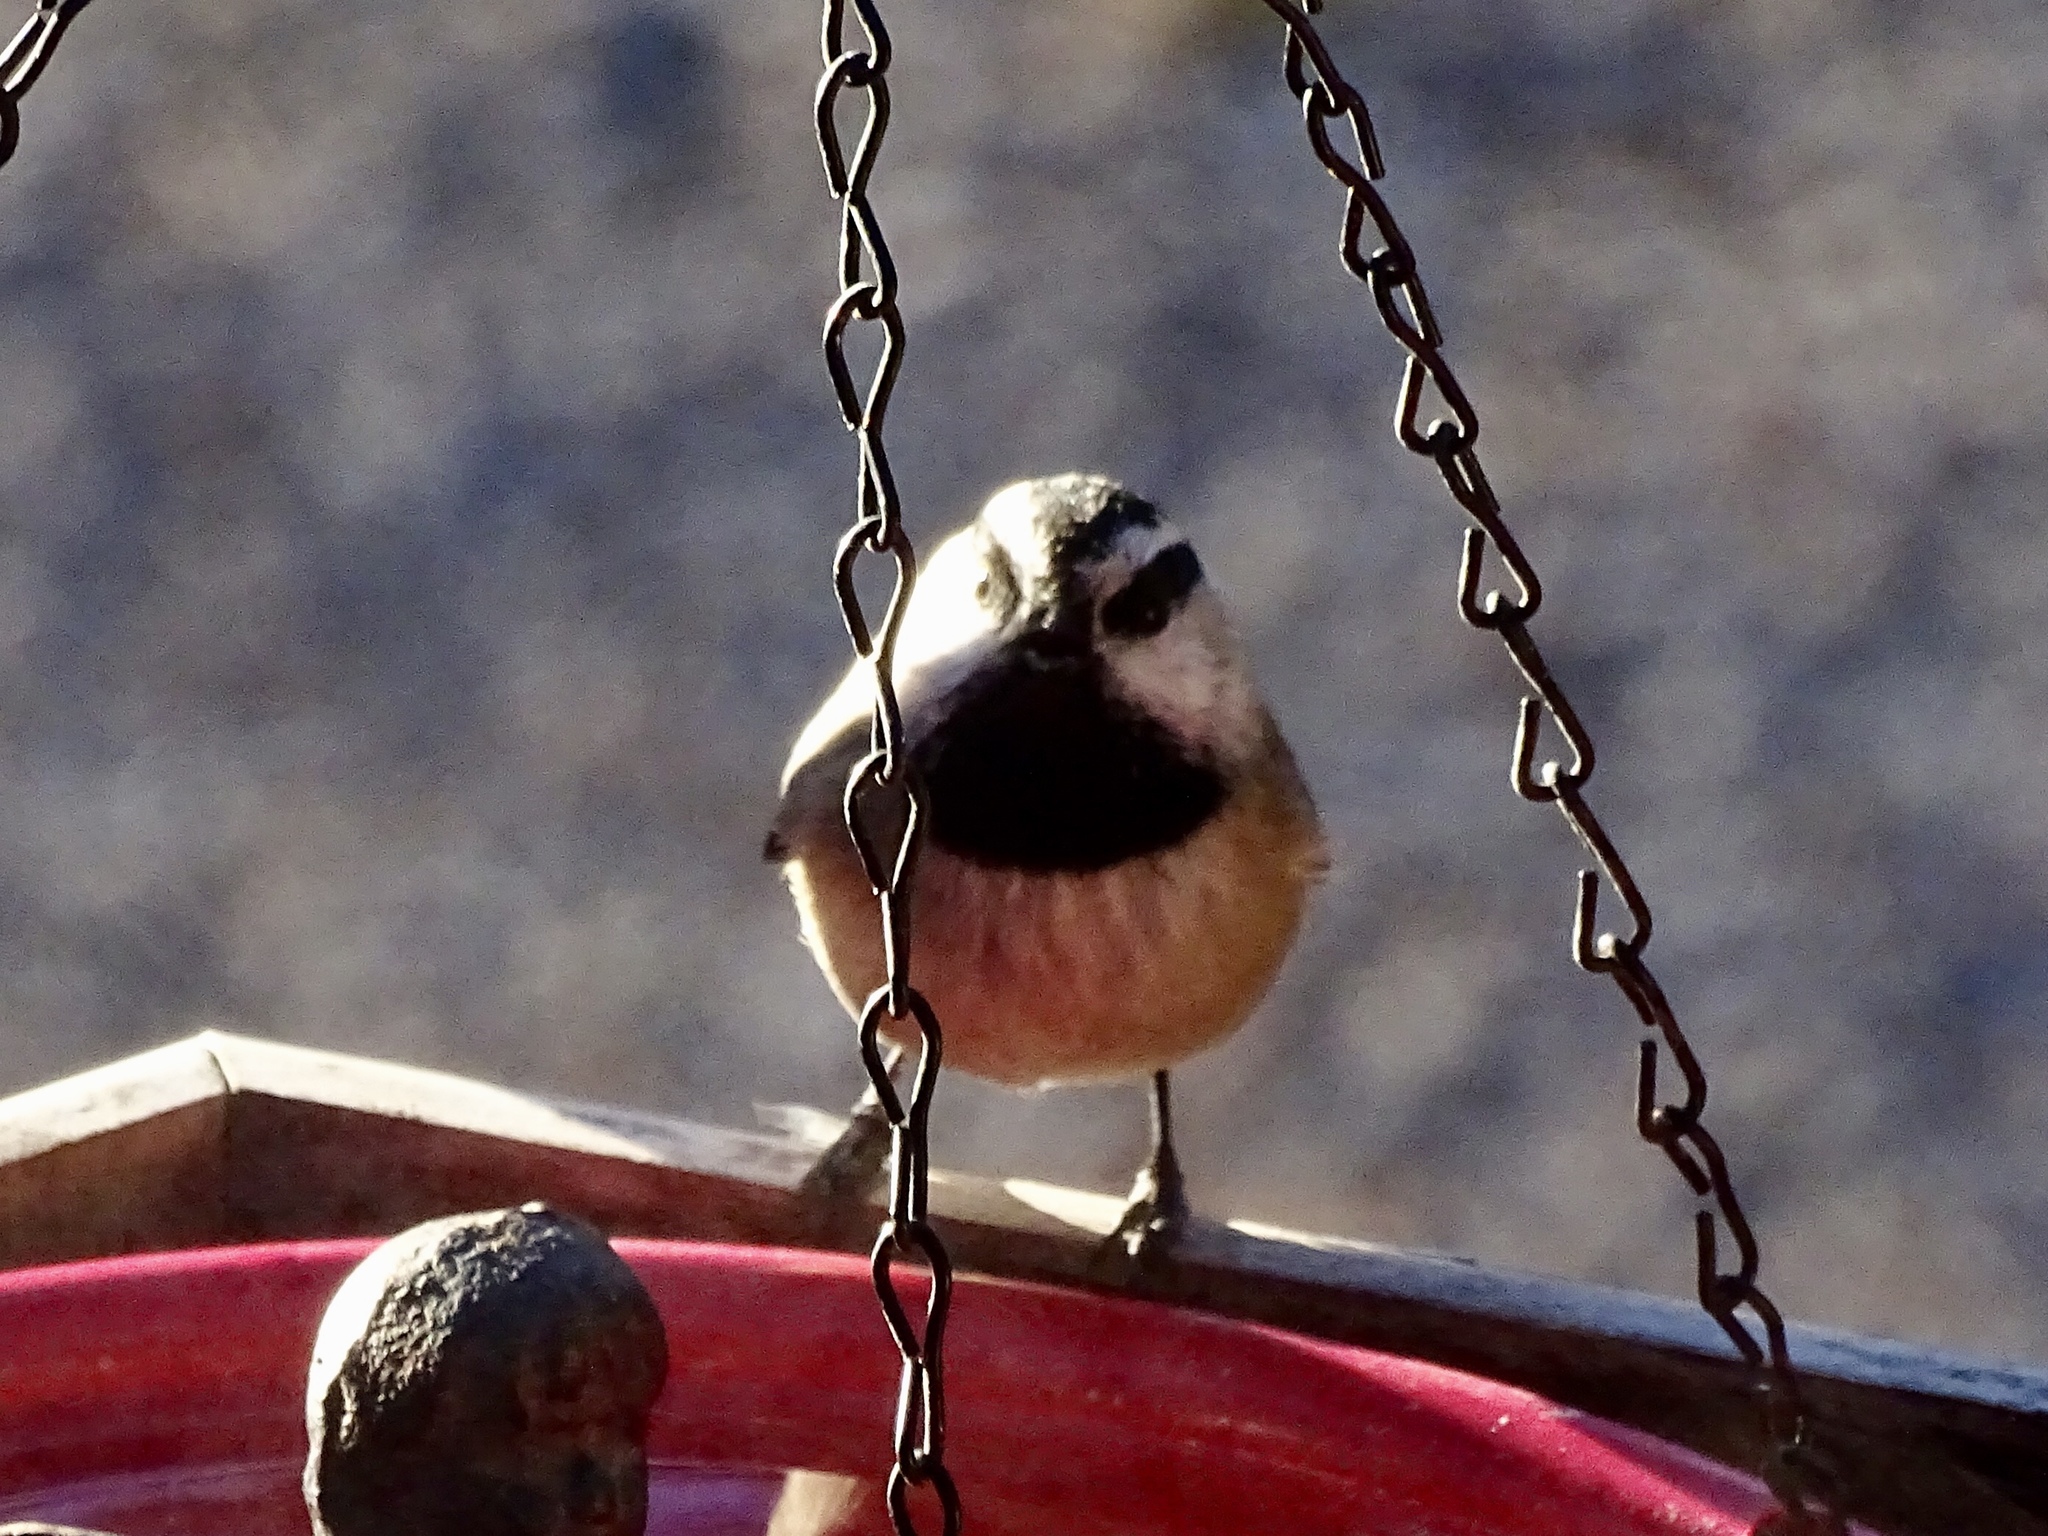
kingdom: Animalia
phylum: Chordata
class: Aves
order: Passeriformes
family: Paridae
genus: Poecile
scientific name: Poecile gambeli
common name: Mountain chickadee
